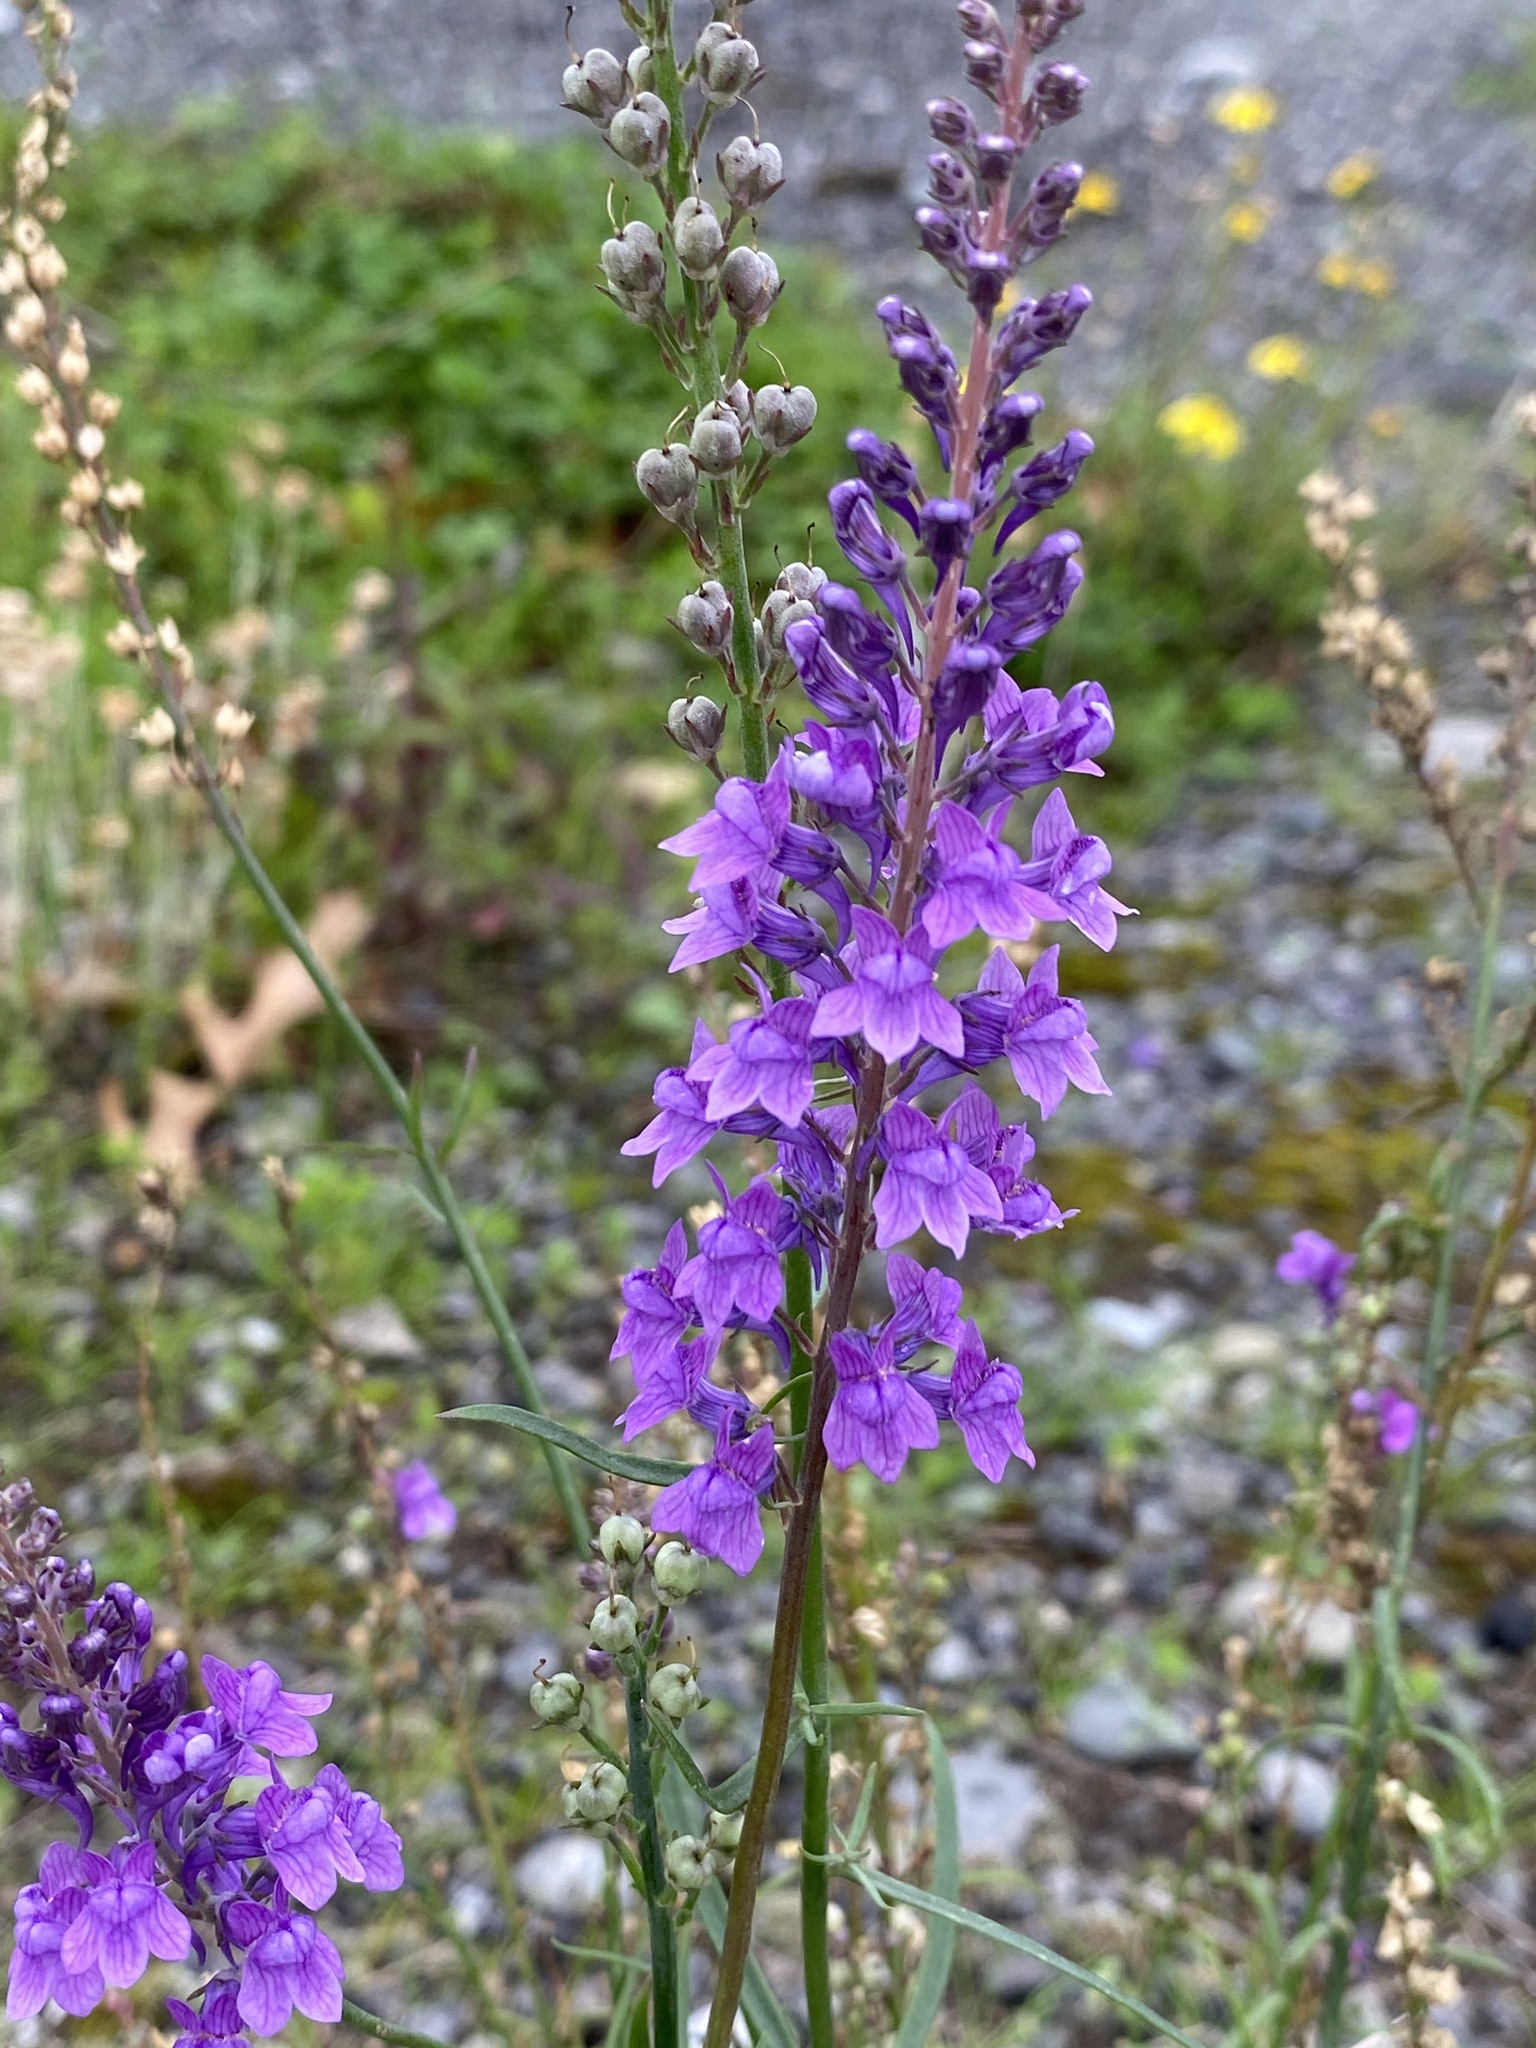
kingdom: Plantae
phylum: Tracheophyta
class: Magnoliopsida
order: Lamiales
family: Plantaginaceae
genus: Linaria
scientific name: Linaria purpurea
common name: Purple toadflax
